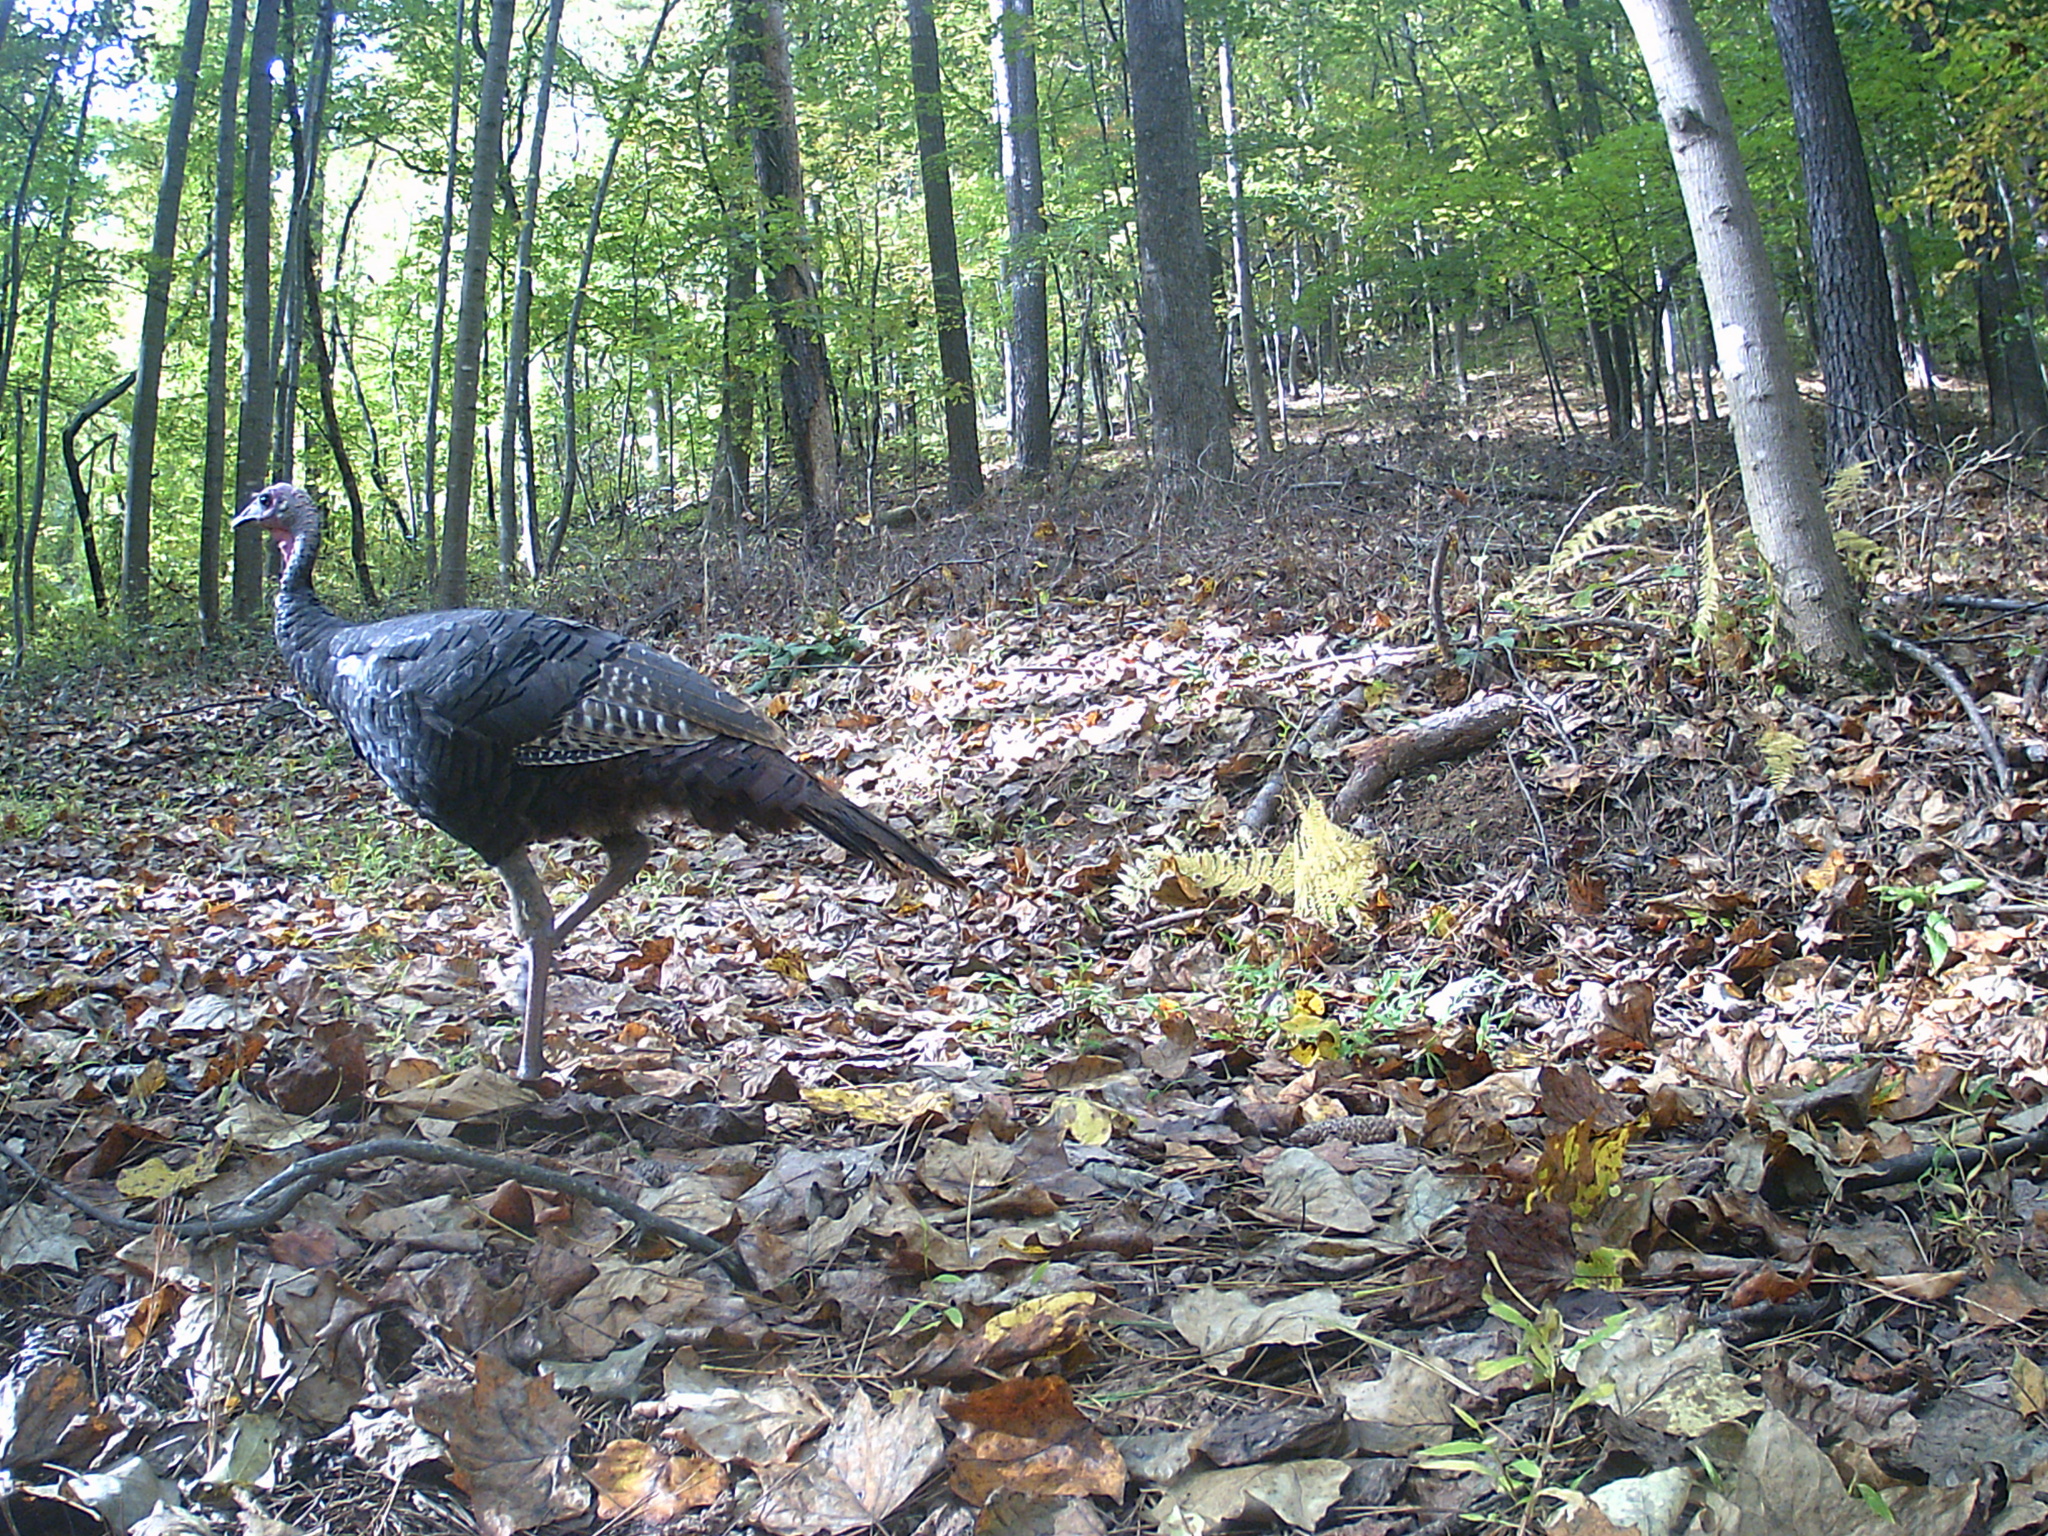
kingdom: Animalia
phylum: Chordata
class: Aves
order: Galliformes
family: Phasianidae
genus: Meleagris
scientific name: Meleagris gallopavo
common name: Wild turkey
